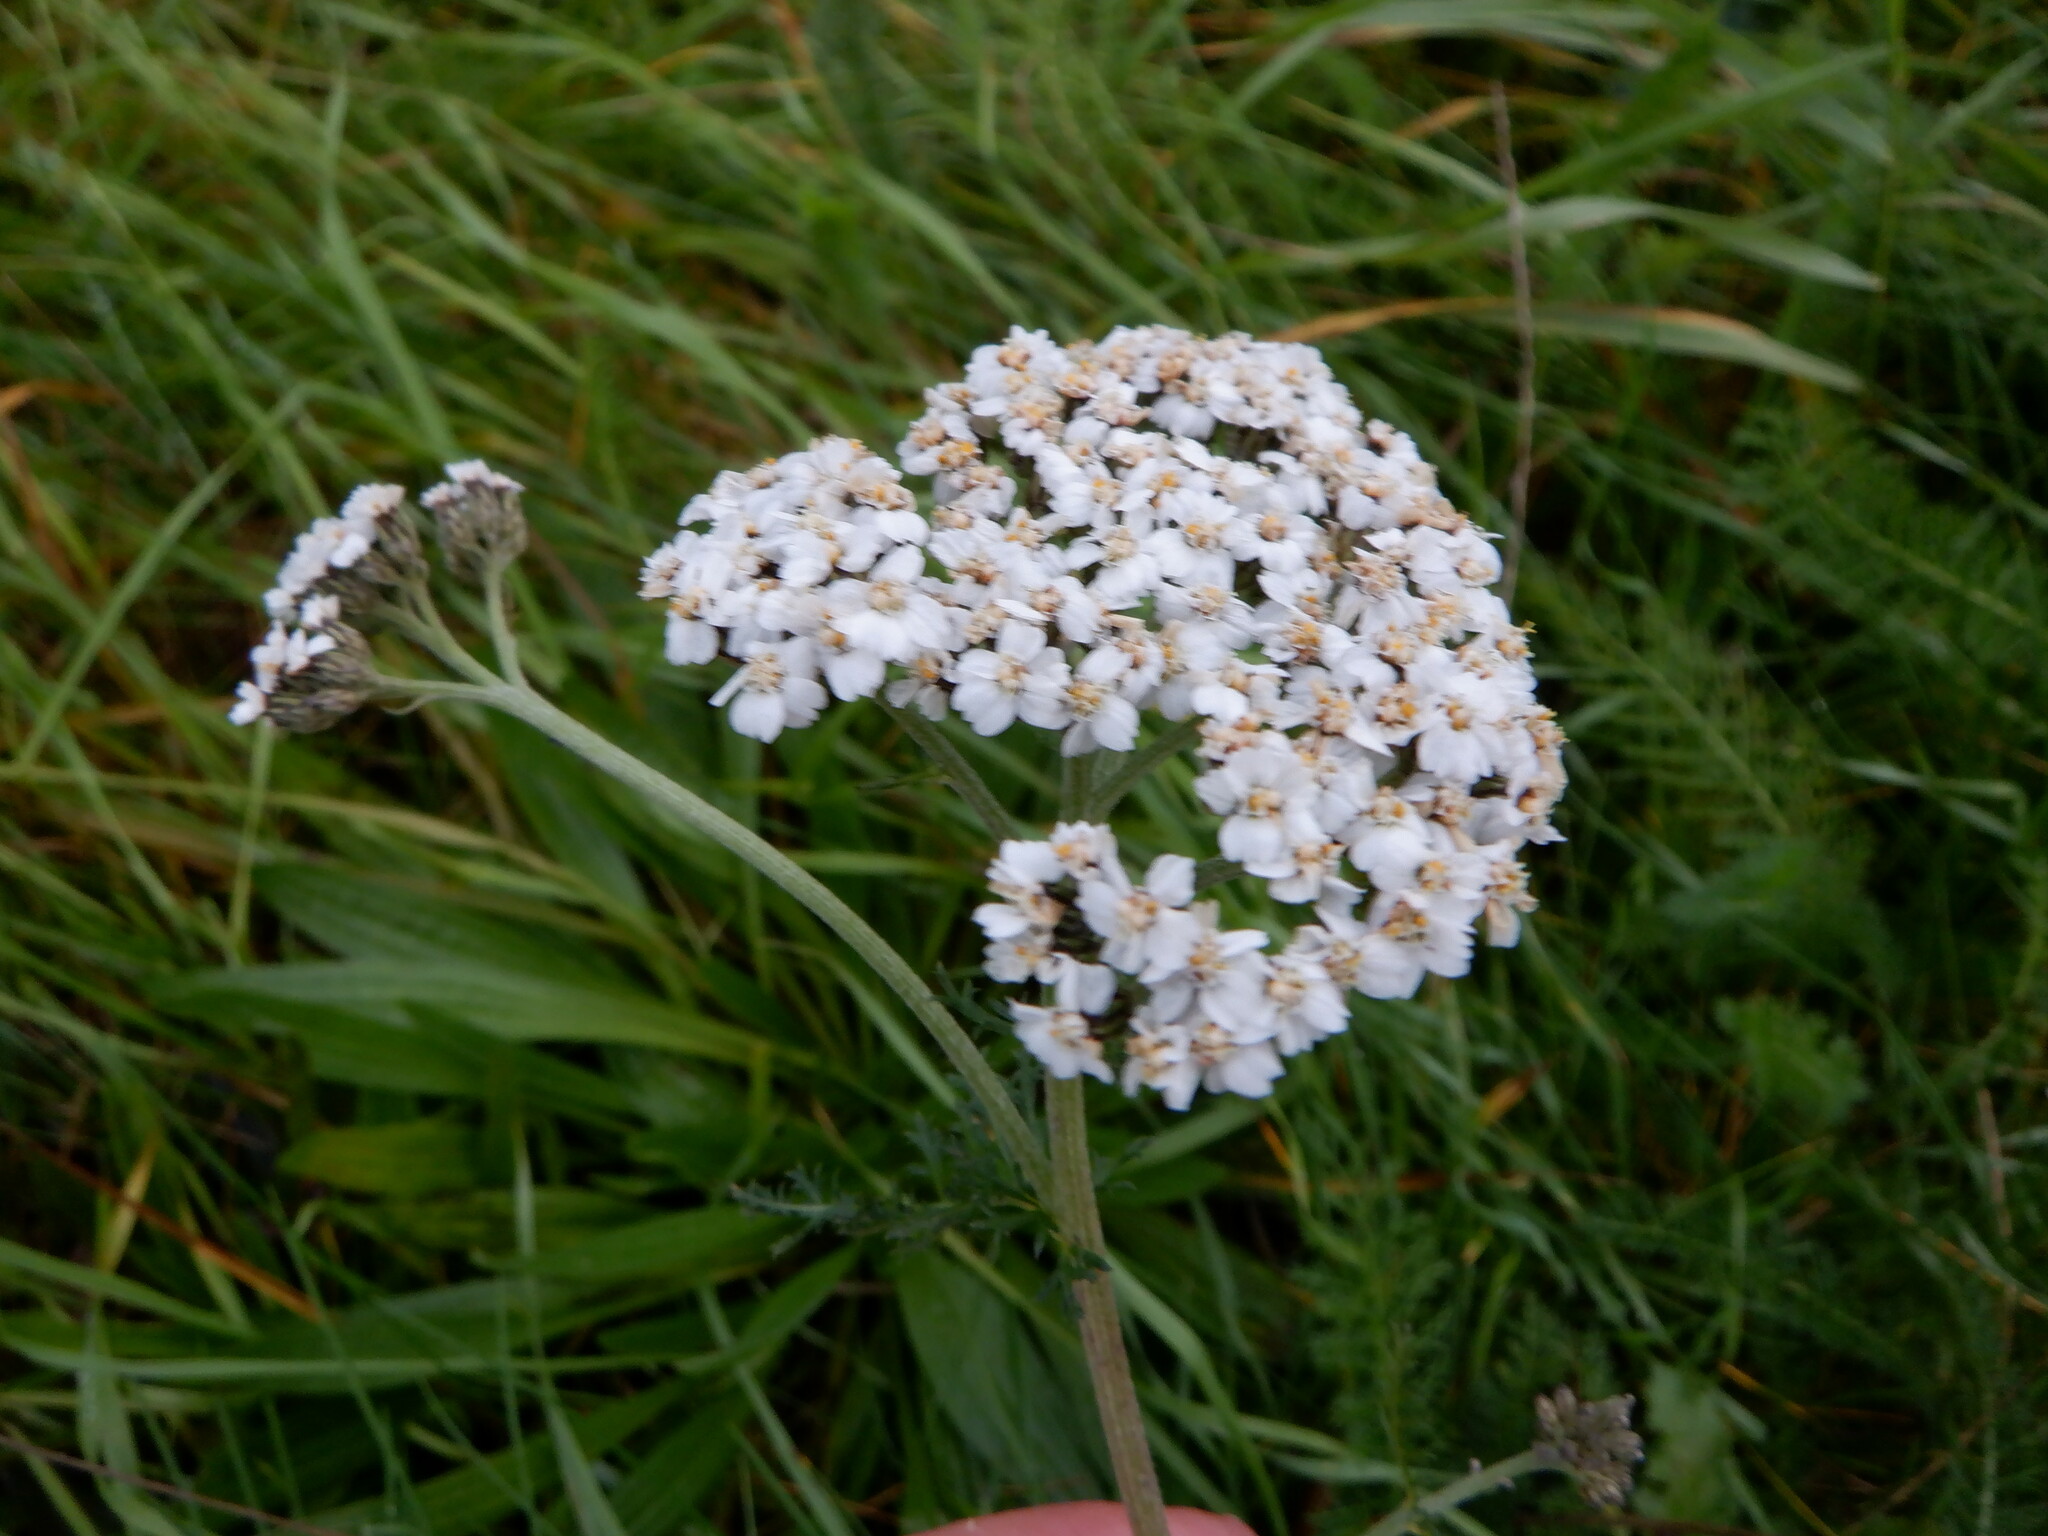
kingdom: Plantae
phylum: Tracheophyta
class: Magnoliopsida
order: Asterales
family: Asteraceae
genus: Achillea
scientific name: Achillea millefolium
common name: Yarrow
